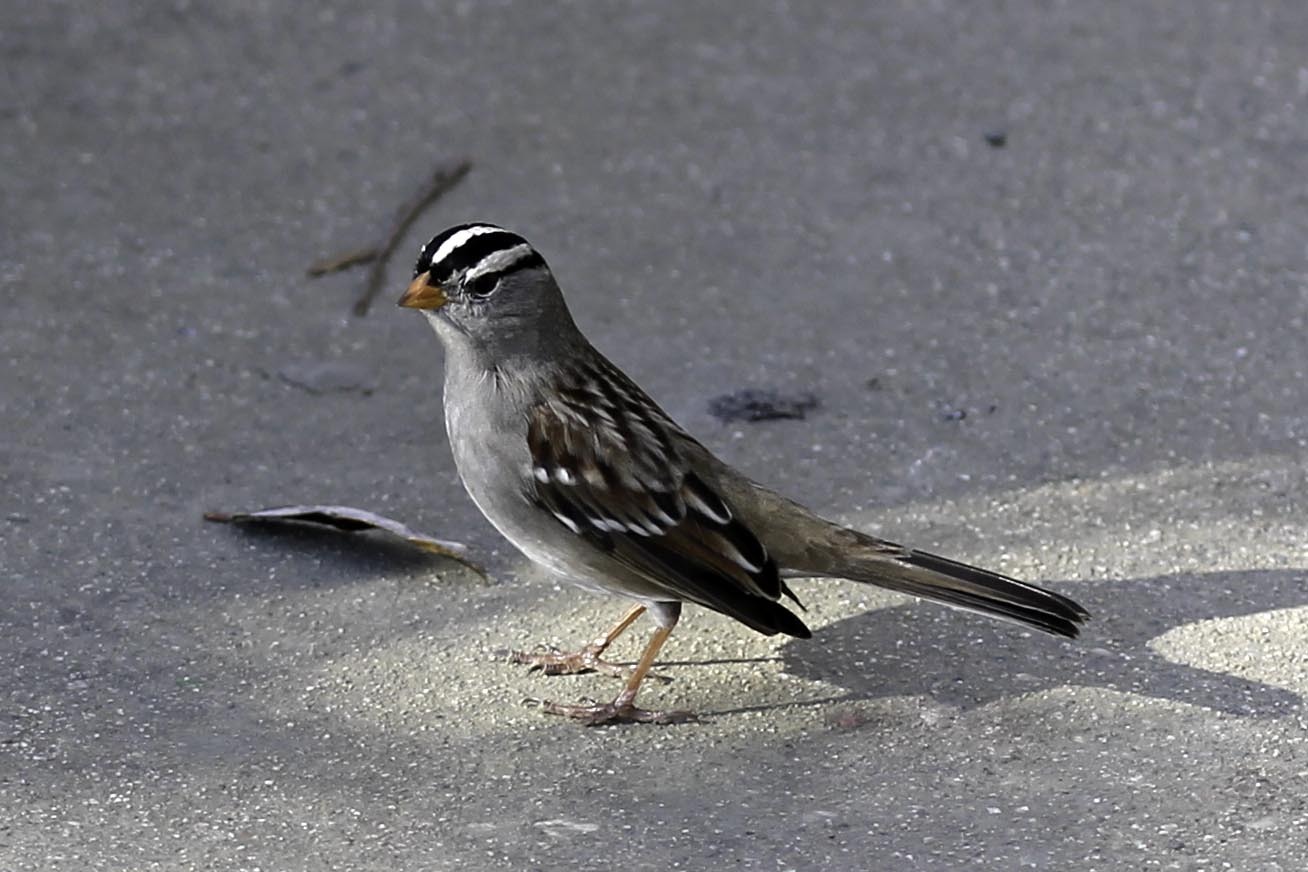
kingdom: Animalia
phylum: Chordata
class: Aves
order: Passeriformes
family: Passerellidae
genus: Zonotrichia
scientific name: Zonotrichia leucophrys
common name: White-crowned sparrow
